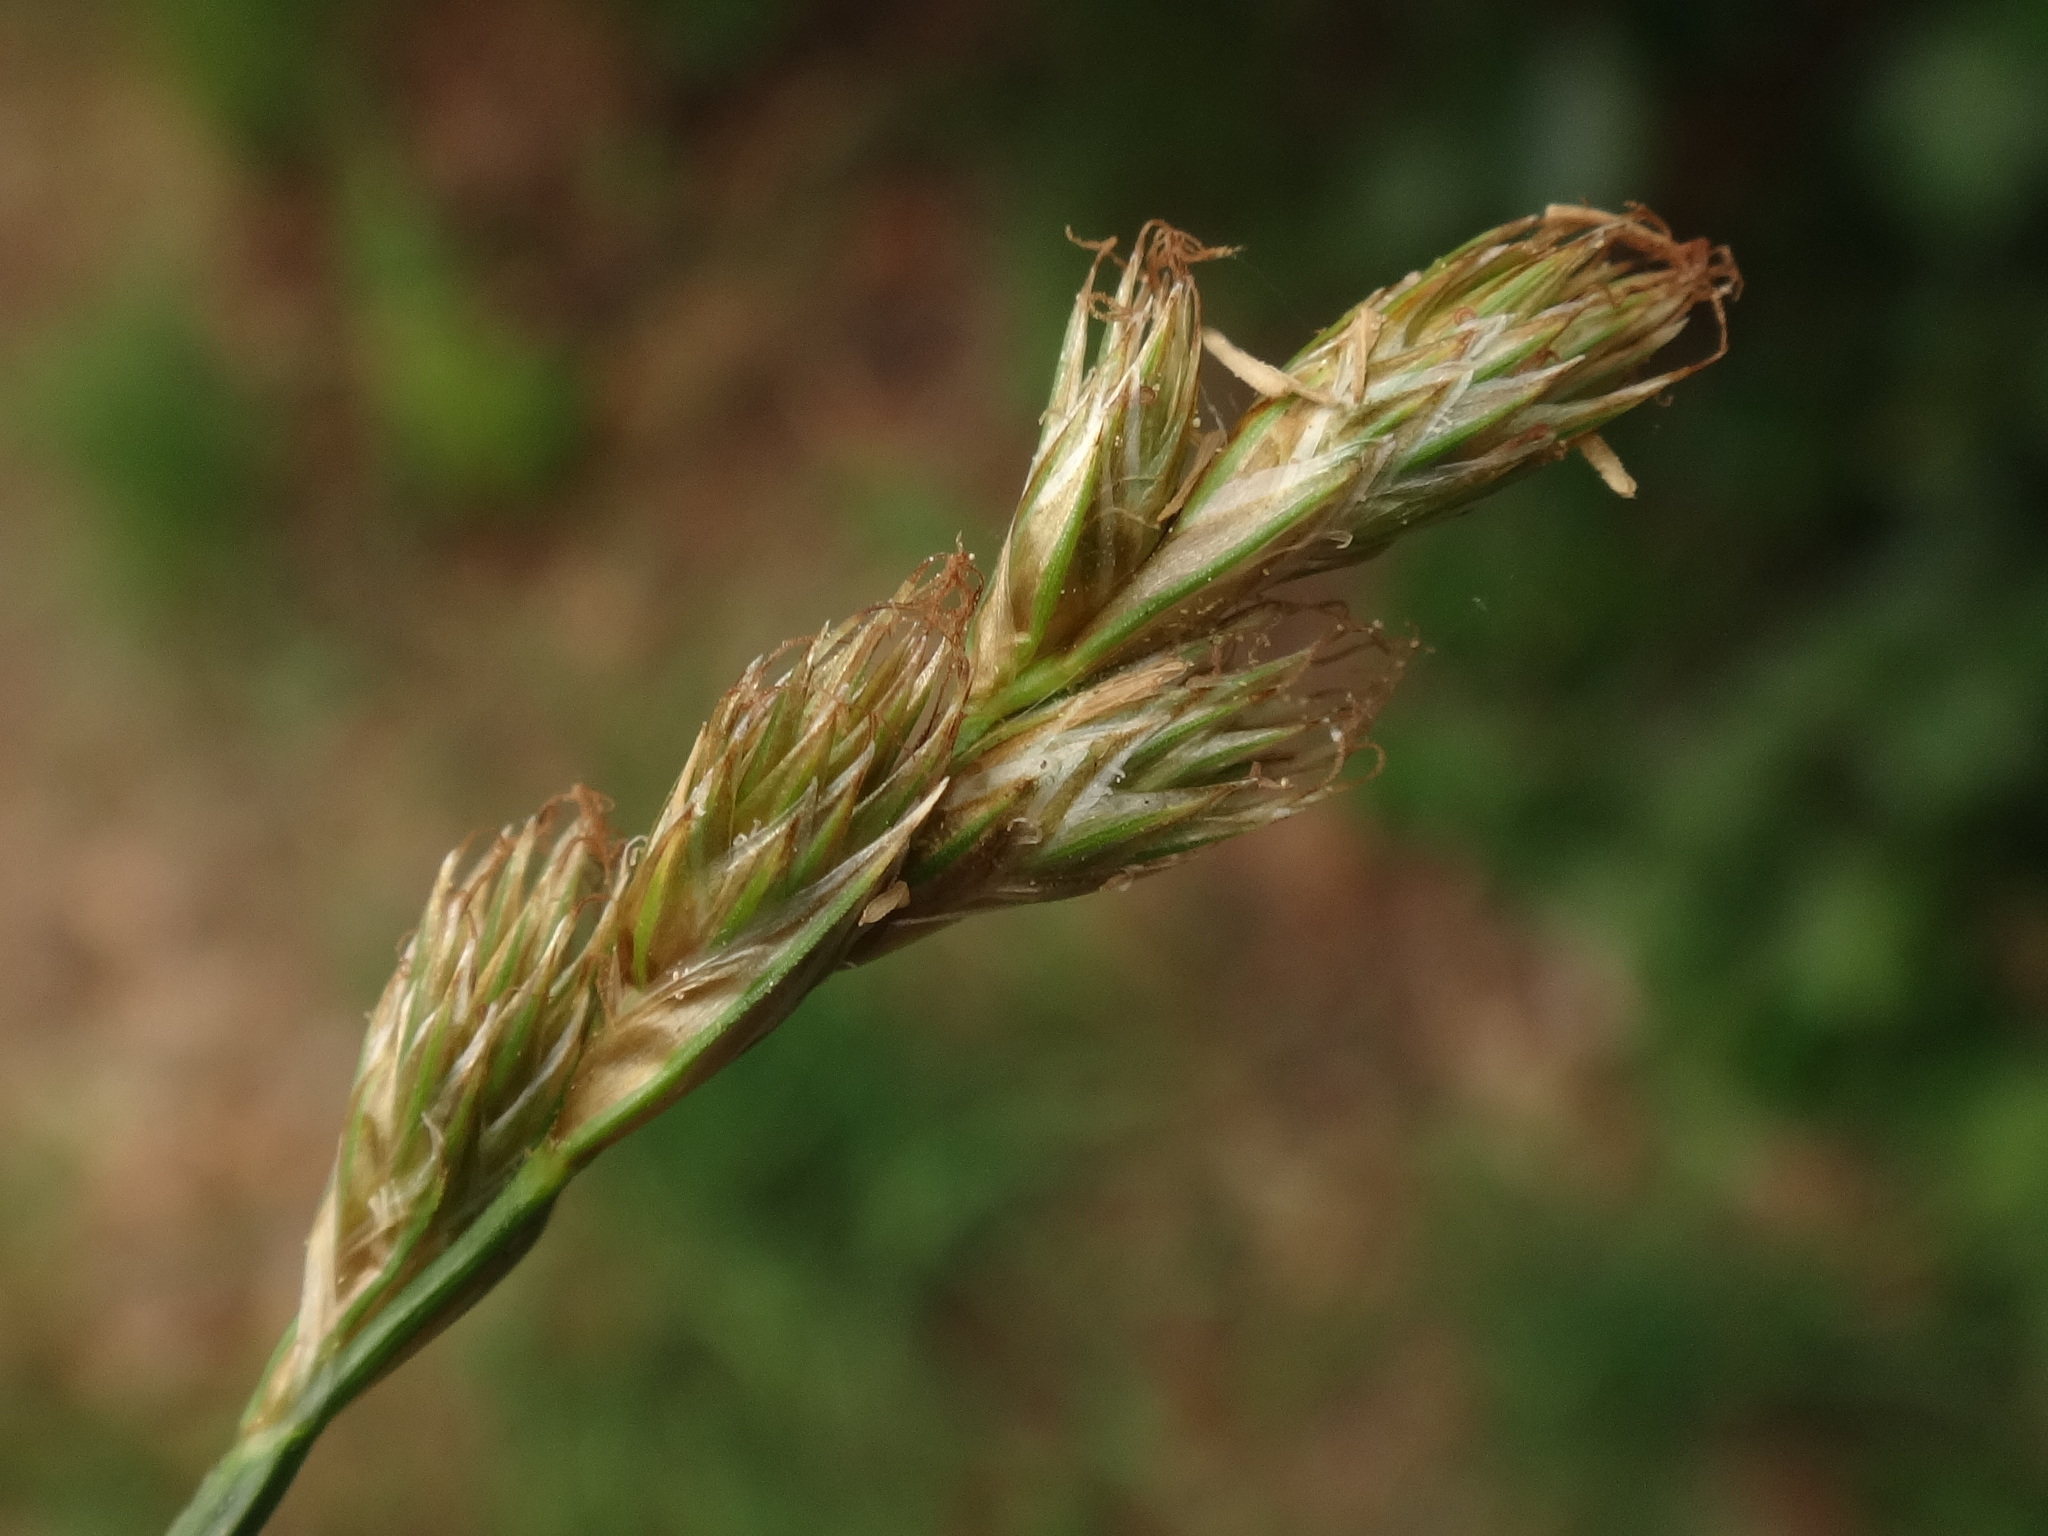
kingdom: Plantae
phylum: Tracheophyta
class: Liliopsida
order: Poales
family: Cyperaceae
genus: Carex
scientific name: Carex leporina
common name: Oval sedge
